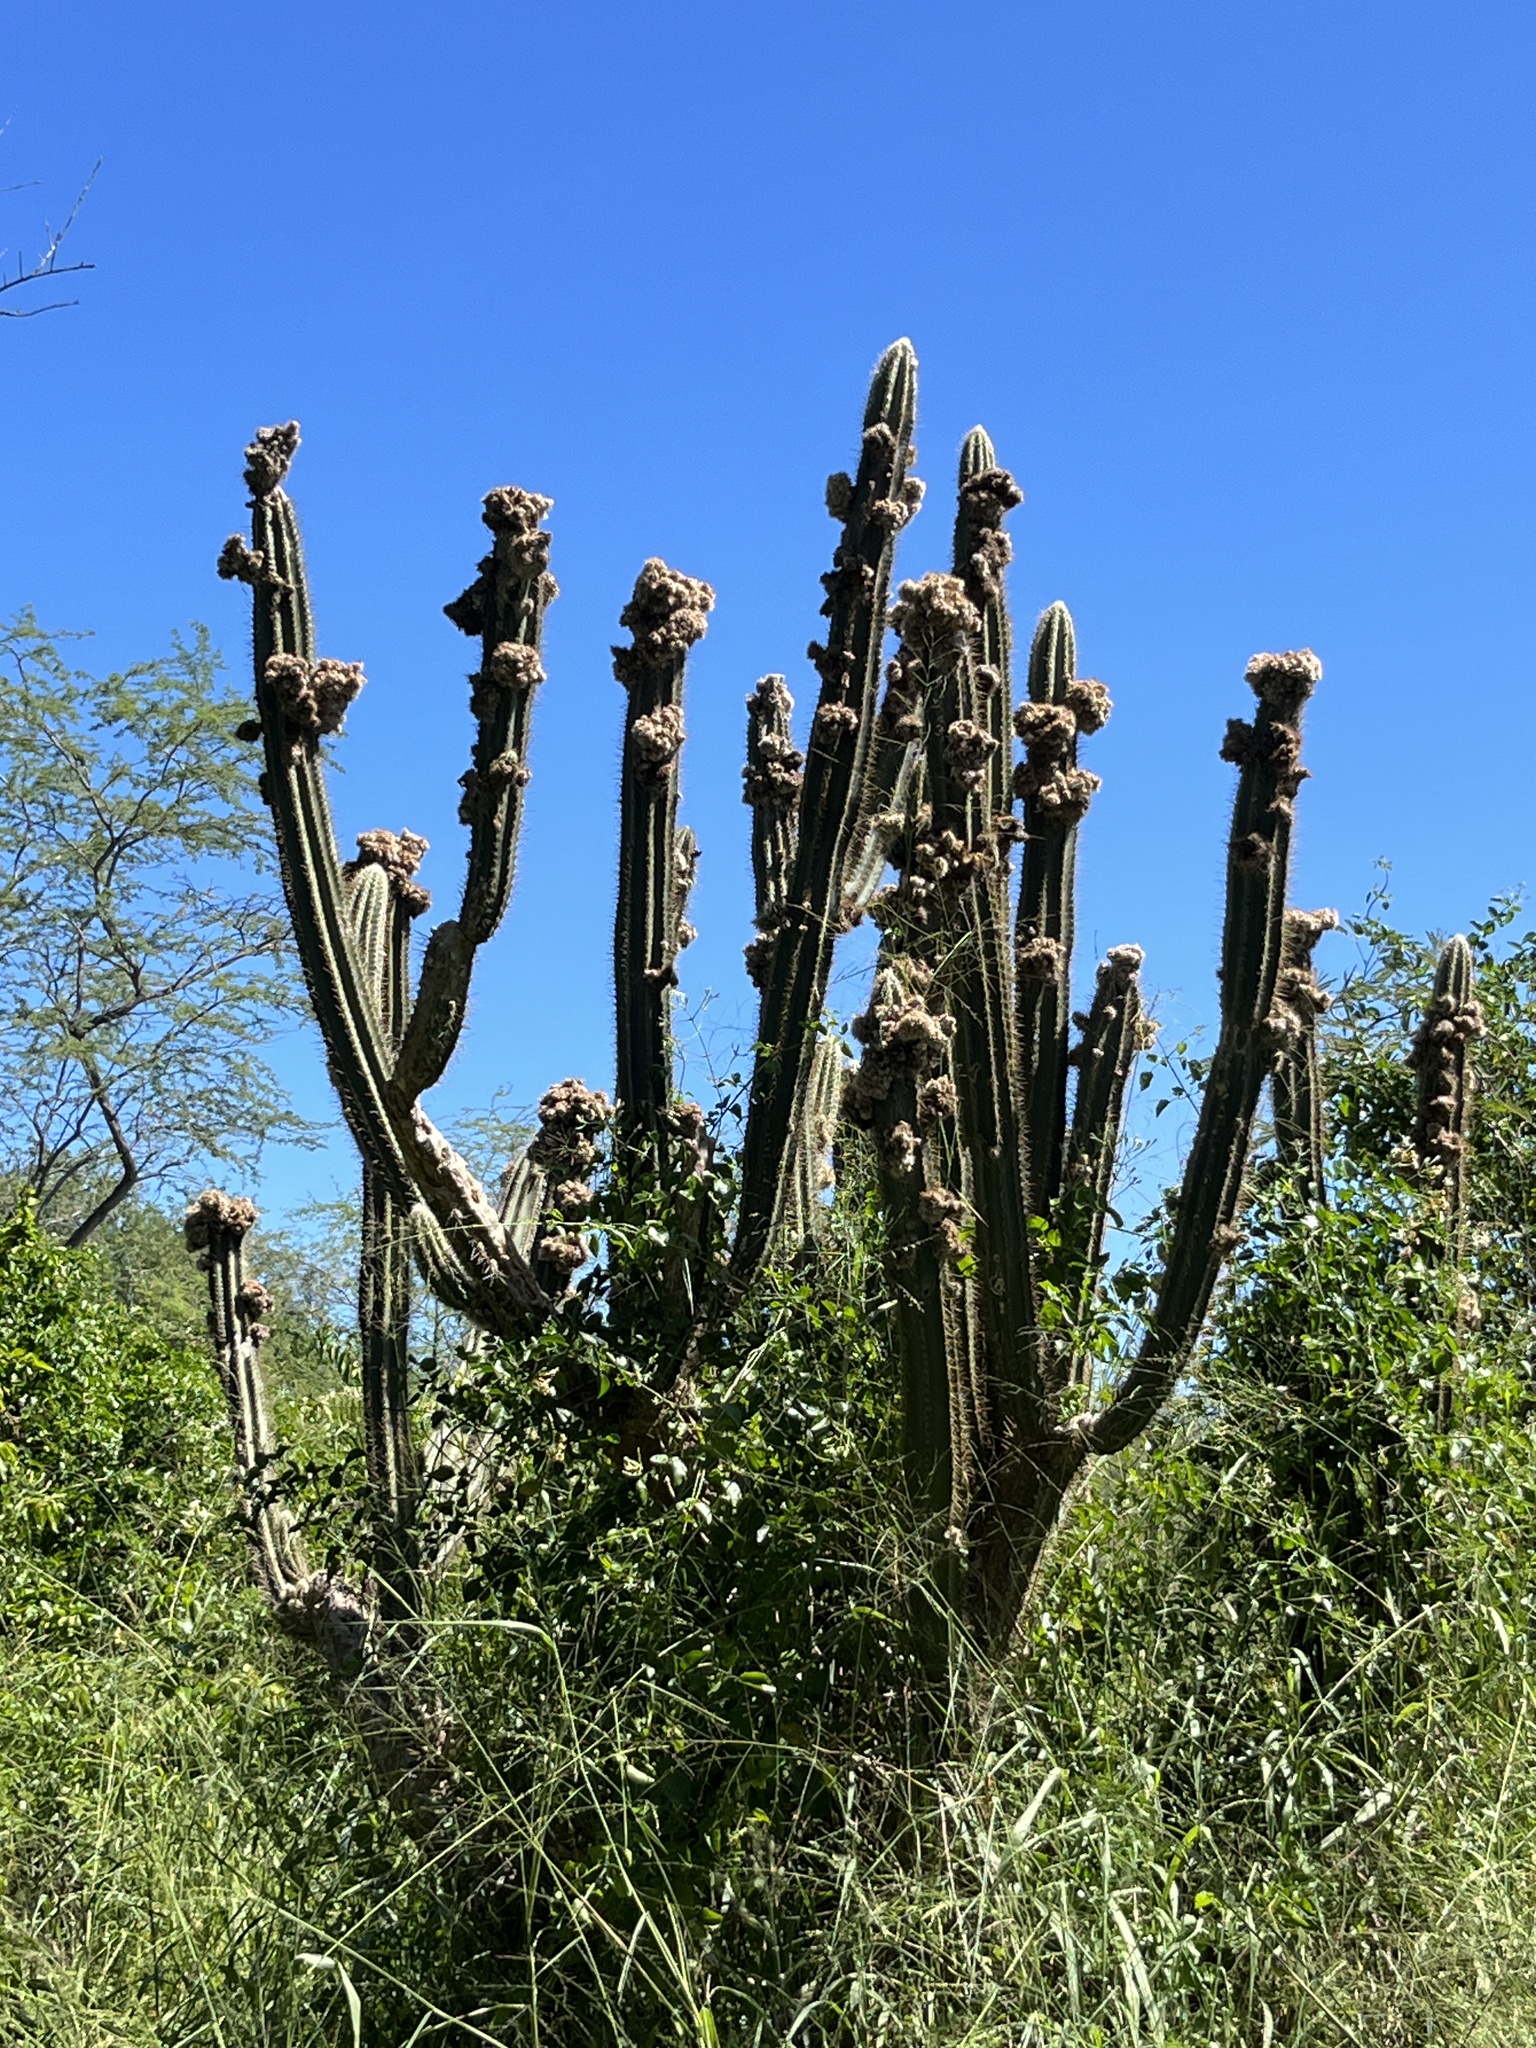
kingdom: Plantae
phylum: Tracheophyta
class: Magnoliopsida
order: Caryophyllales
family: Cactaceae
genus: Pilosocereus
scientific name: Pilosocereus armatus
